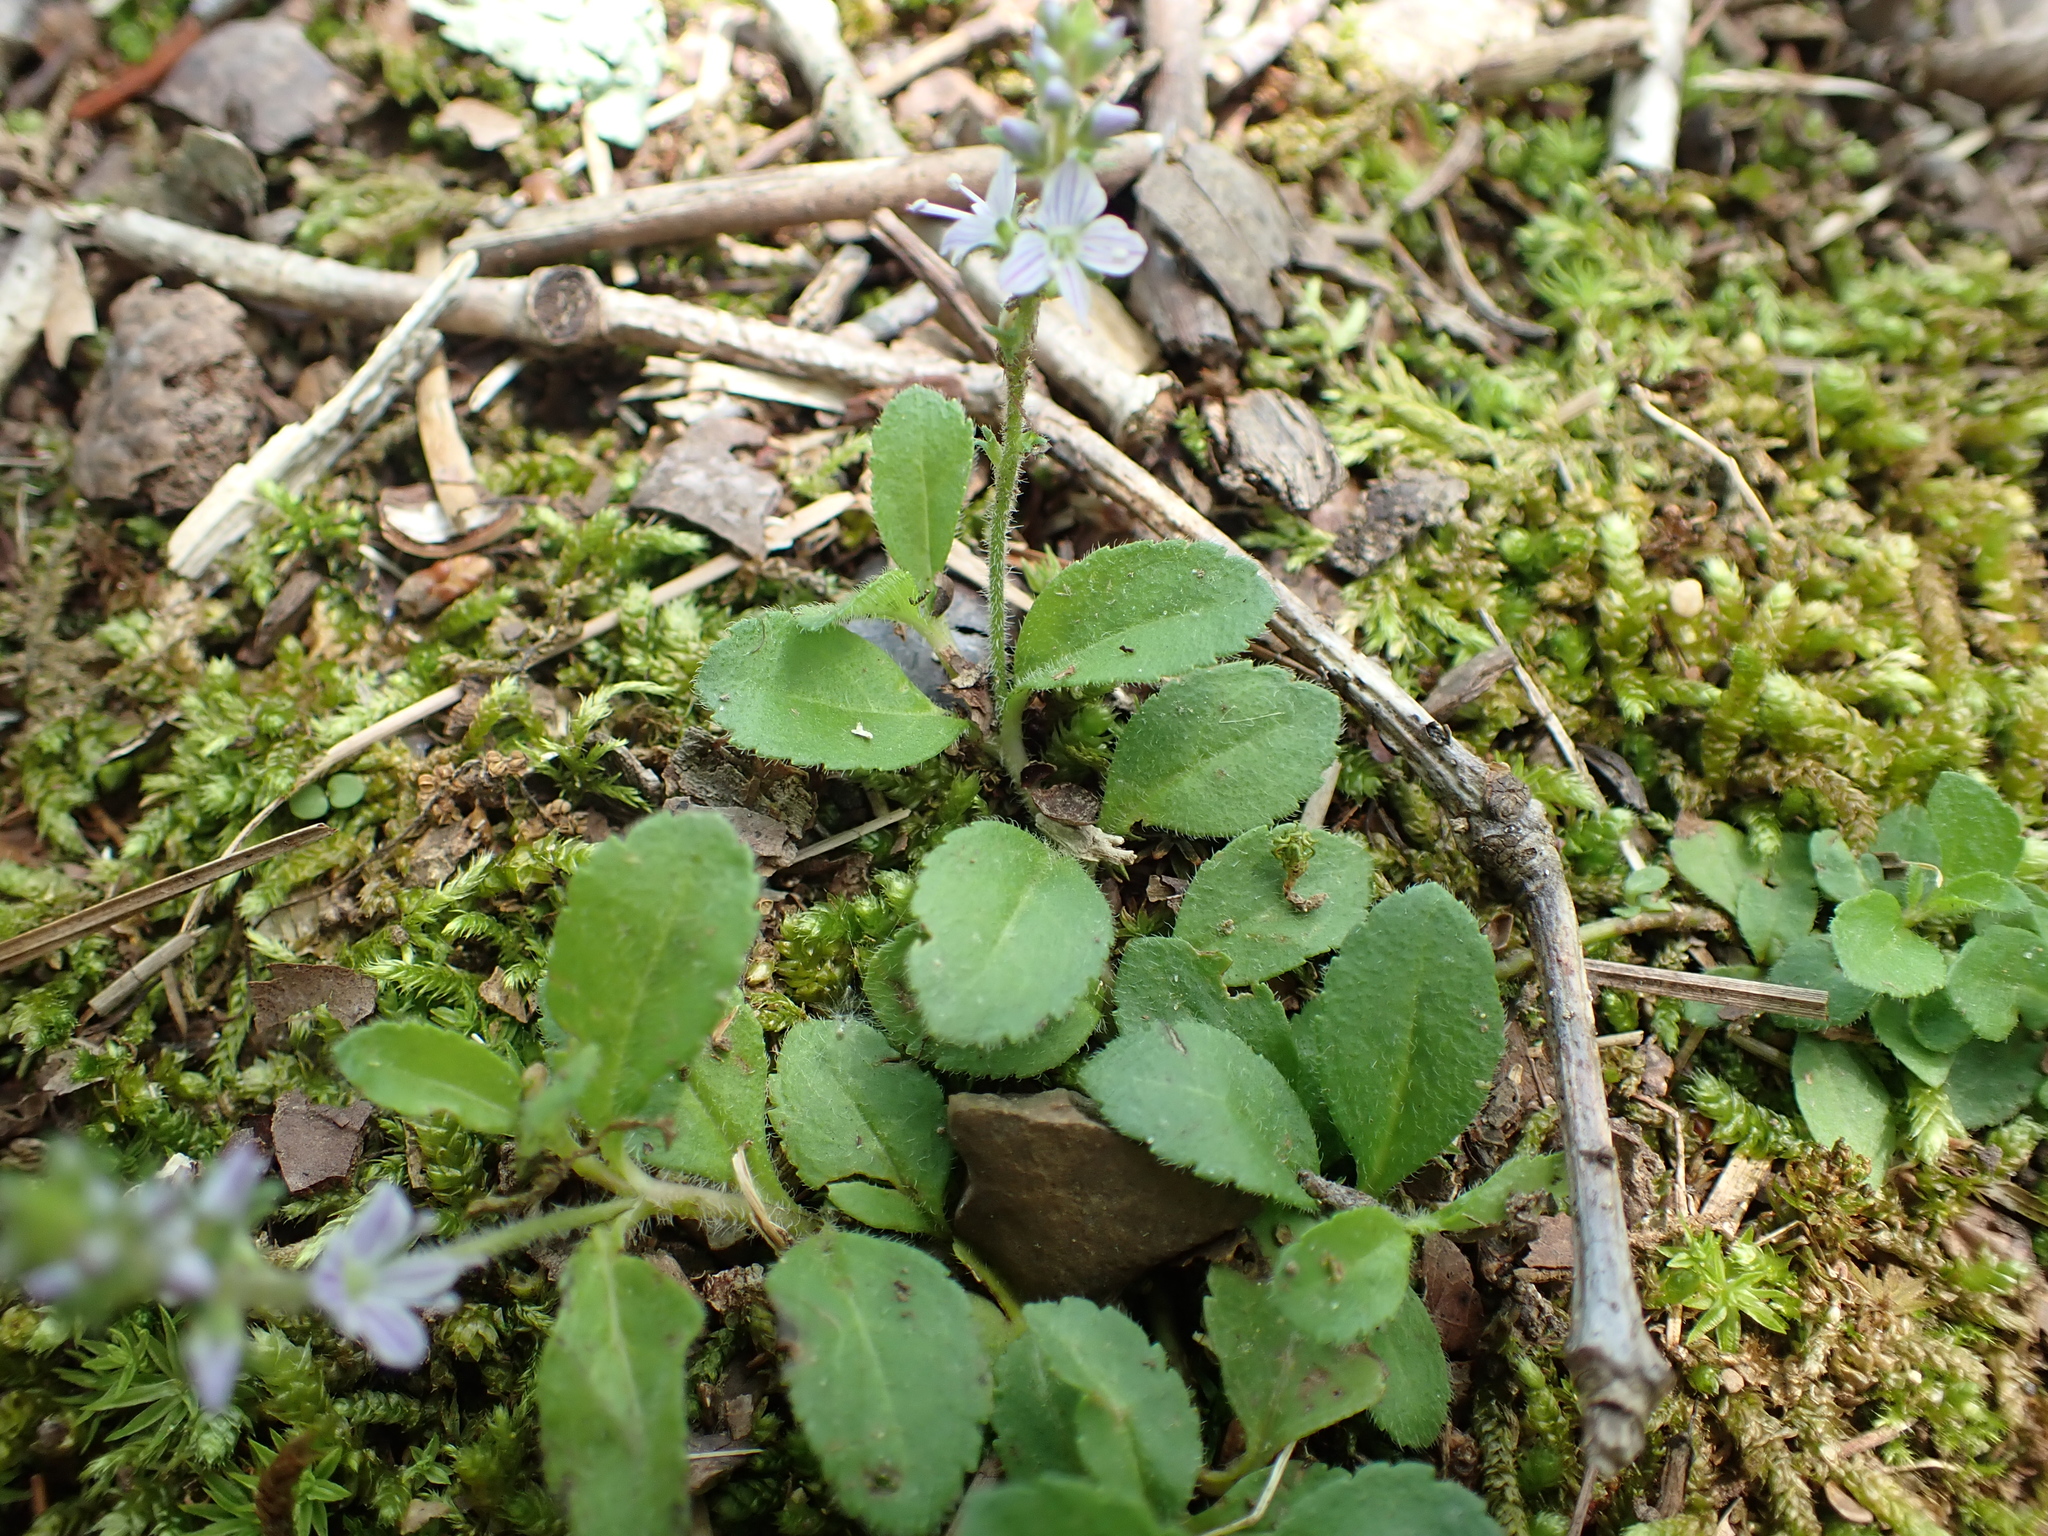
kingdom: Plantae
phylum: Tracheophyta
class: Magnoliopsida
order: Lamiales
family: Plantaginaceae
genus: Veronica
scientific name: Veronica officinalis
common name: Common speedwell
